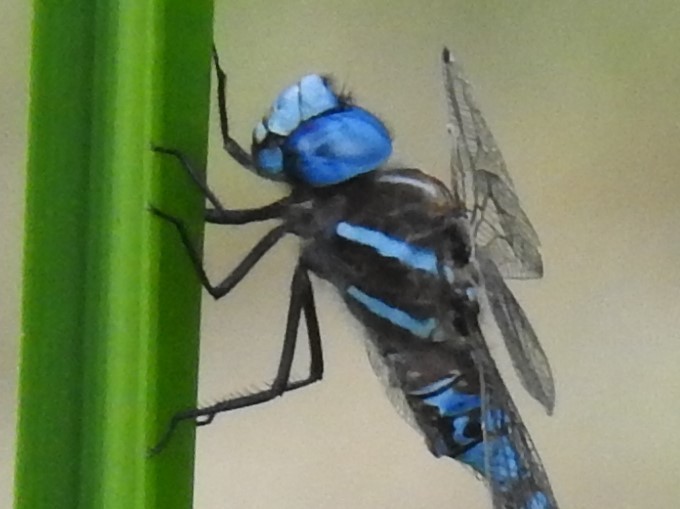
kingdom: Animalia
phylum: Arthropoda
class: Insecta
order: Odonata
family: Aeshnidae
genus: Rhionaeschna
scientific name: Rhionaeschna multicolor
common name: Blue-eyed darner
